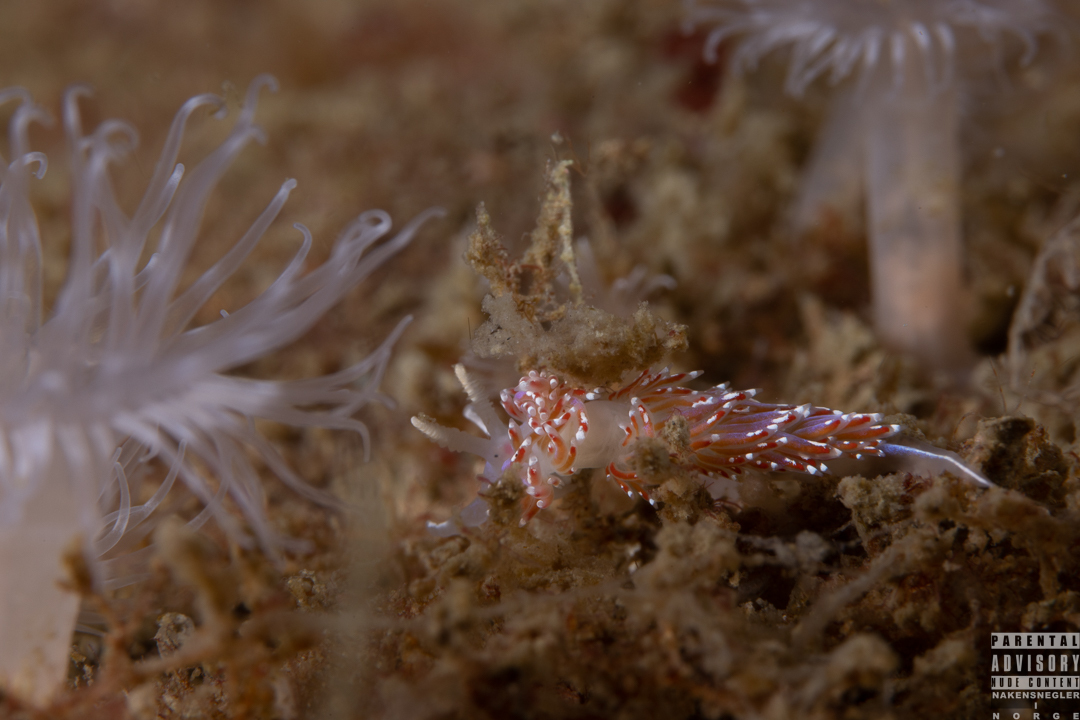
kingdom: Animalia
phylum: Mollusca
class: Gastropoda
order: Nudibranchia
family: Facelinidae
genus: Facelina
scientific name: Facelina auriculata
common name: Slender facelina
